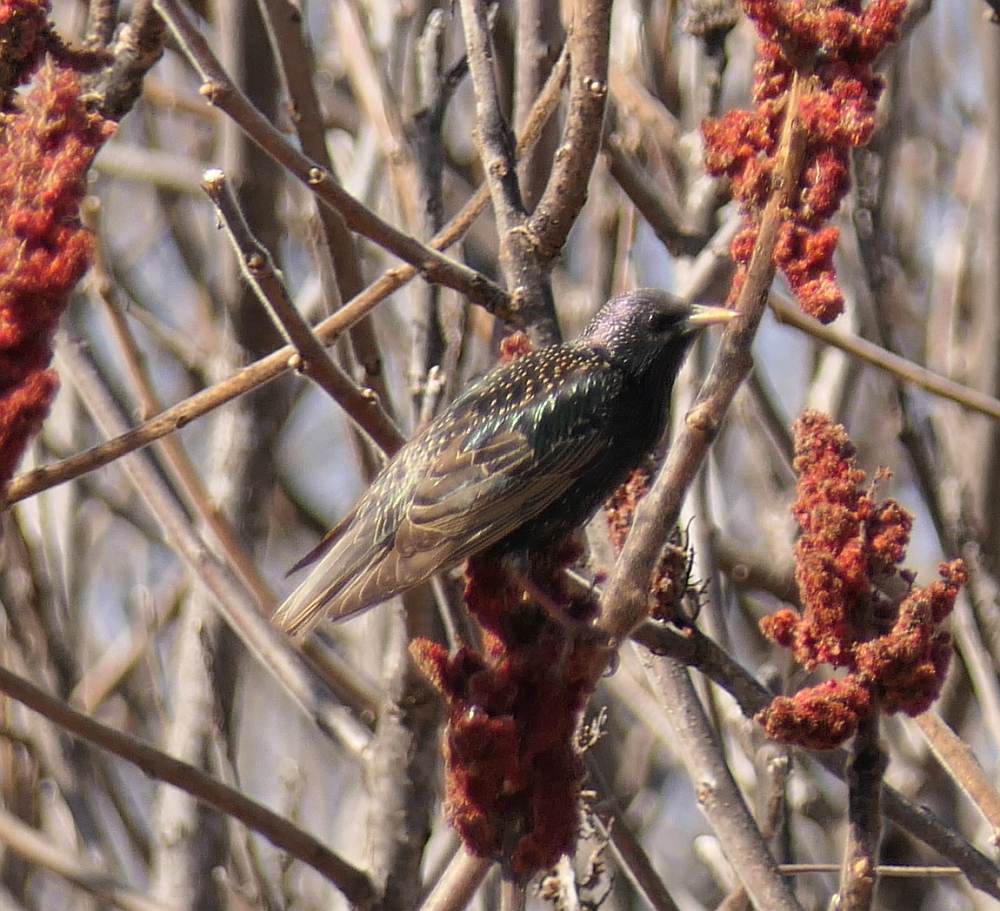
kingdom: Animalia
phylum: Chordata
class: Aves
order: Passeriformes
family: Sturnidae
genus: Sturnus
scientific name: Sturnus vulgaris
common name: Common starling
